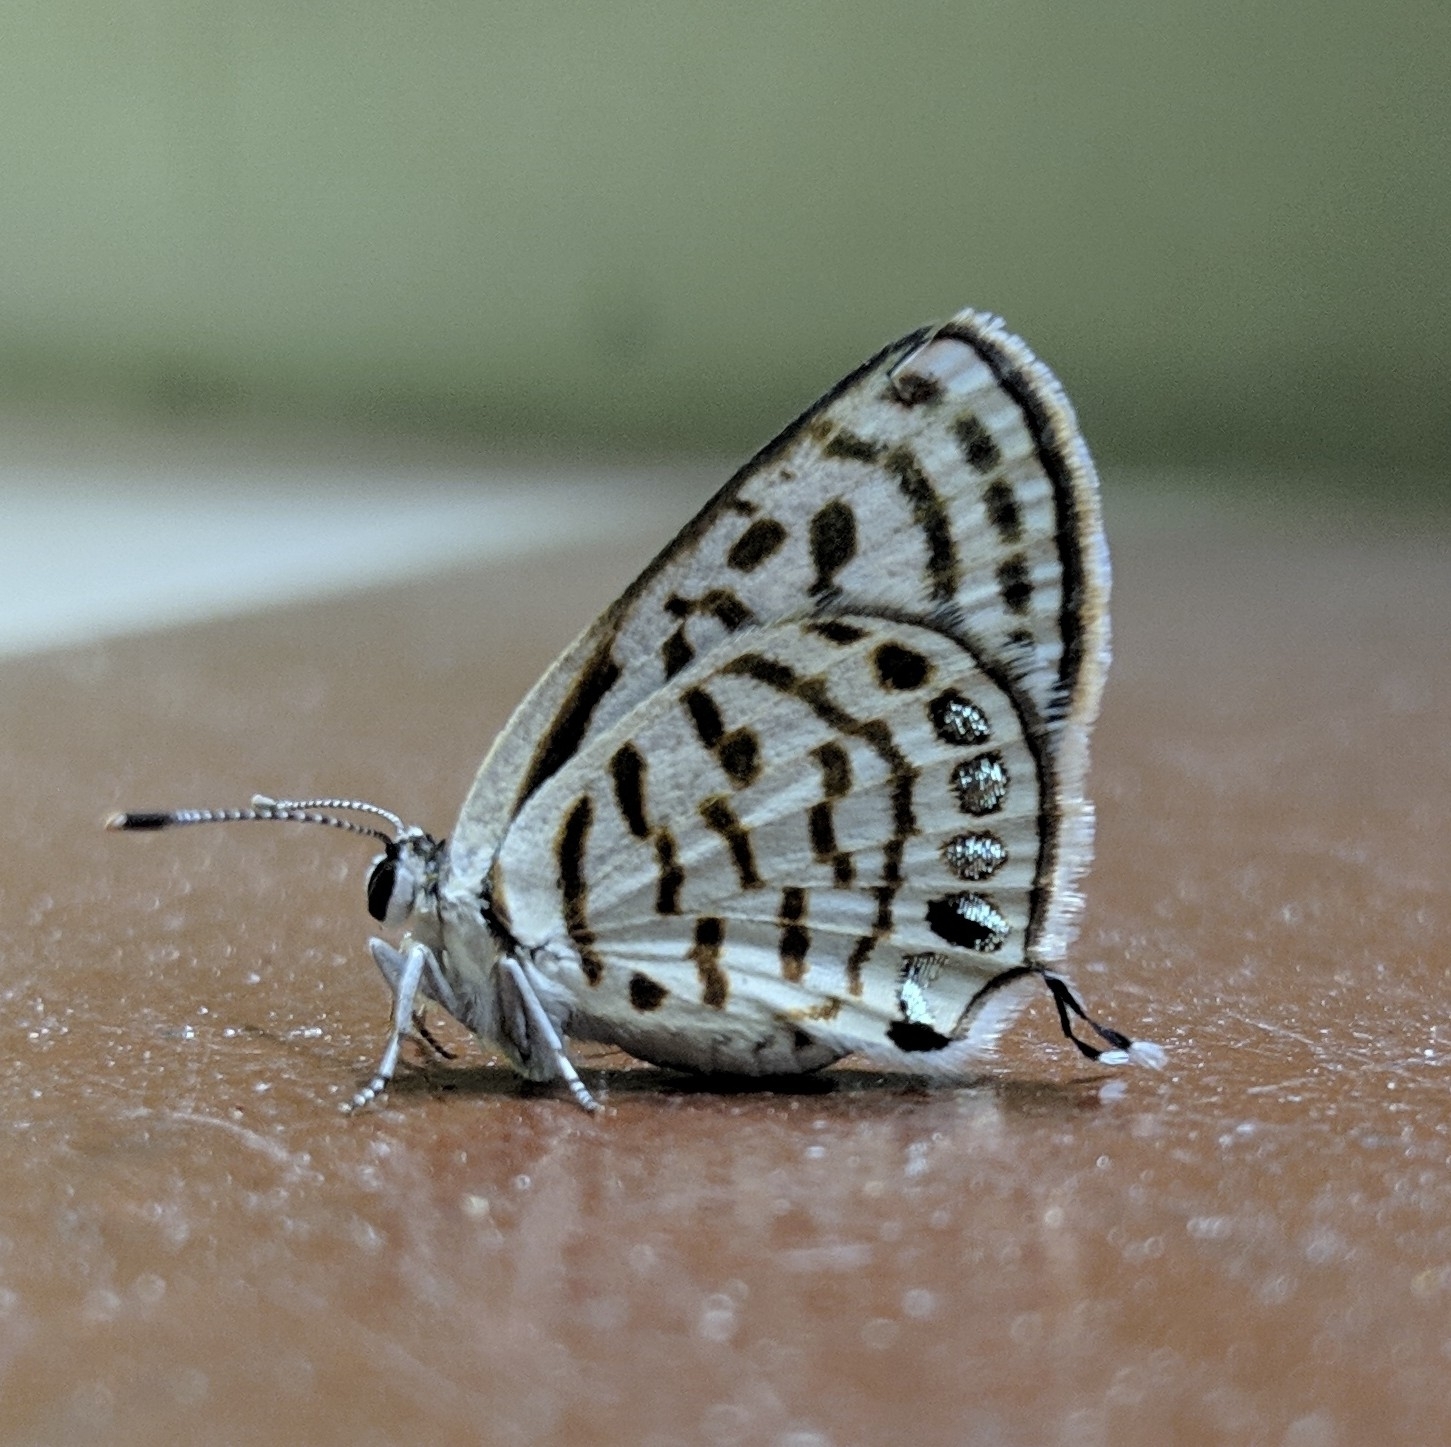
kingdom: Animalia
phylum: Arthropoda
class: Insecta
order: Lepidoptera
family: Lycaenidae
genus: Tarucus
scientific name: Tarucus
